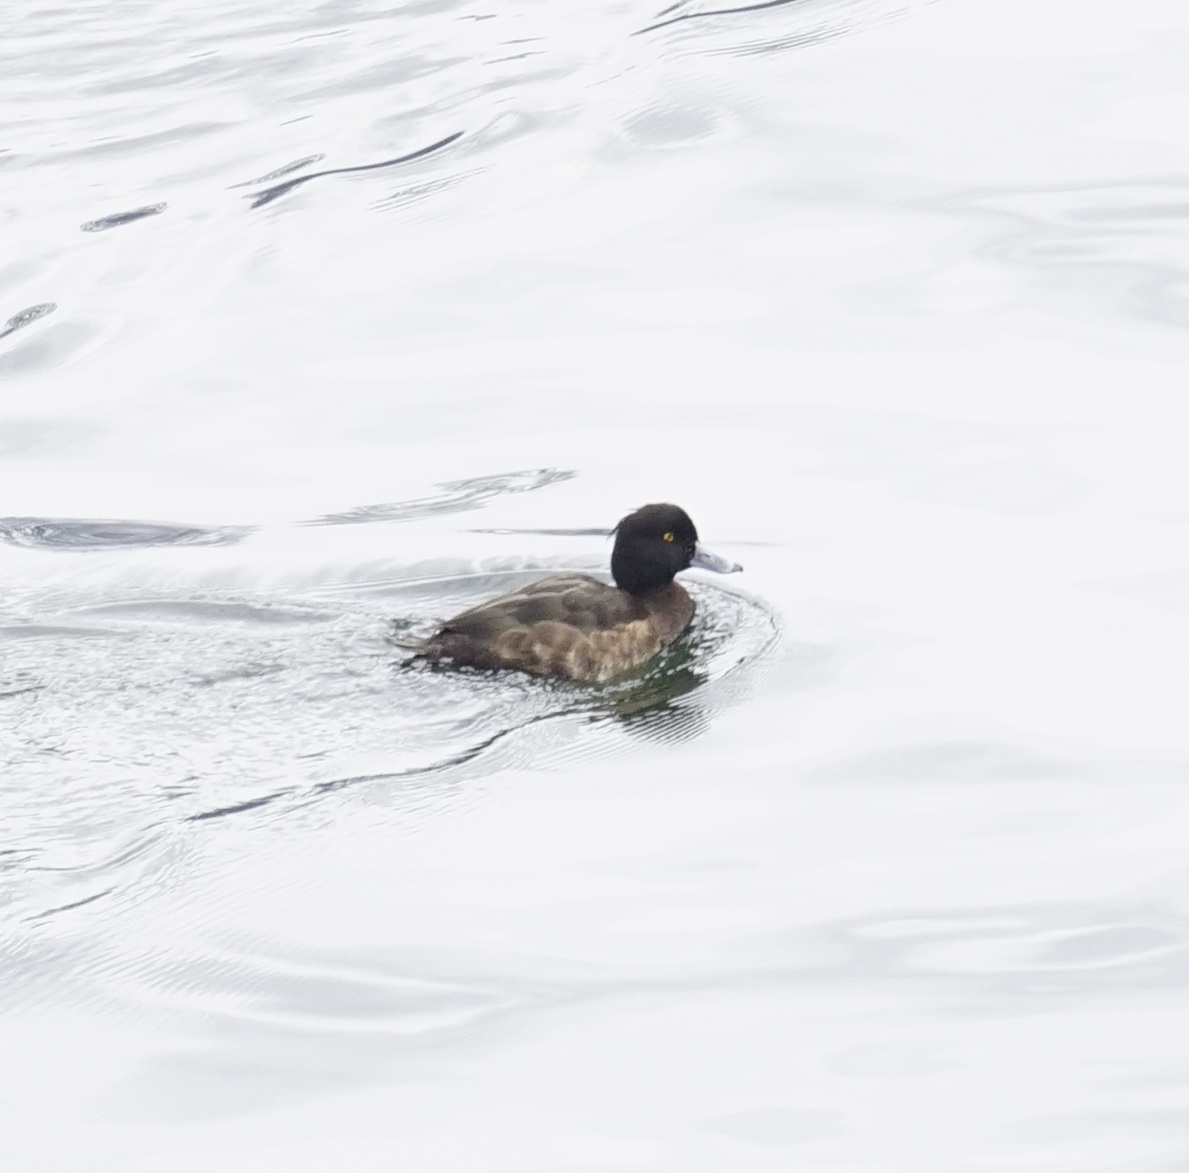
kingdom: Animalia
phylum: Chordata
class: Aves
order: Anseriformes
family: Anatidae
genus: Aythya
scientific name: Aythya fuligula
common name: Tufted duck
